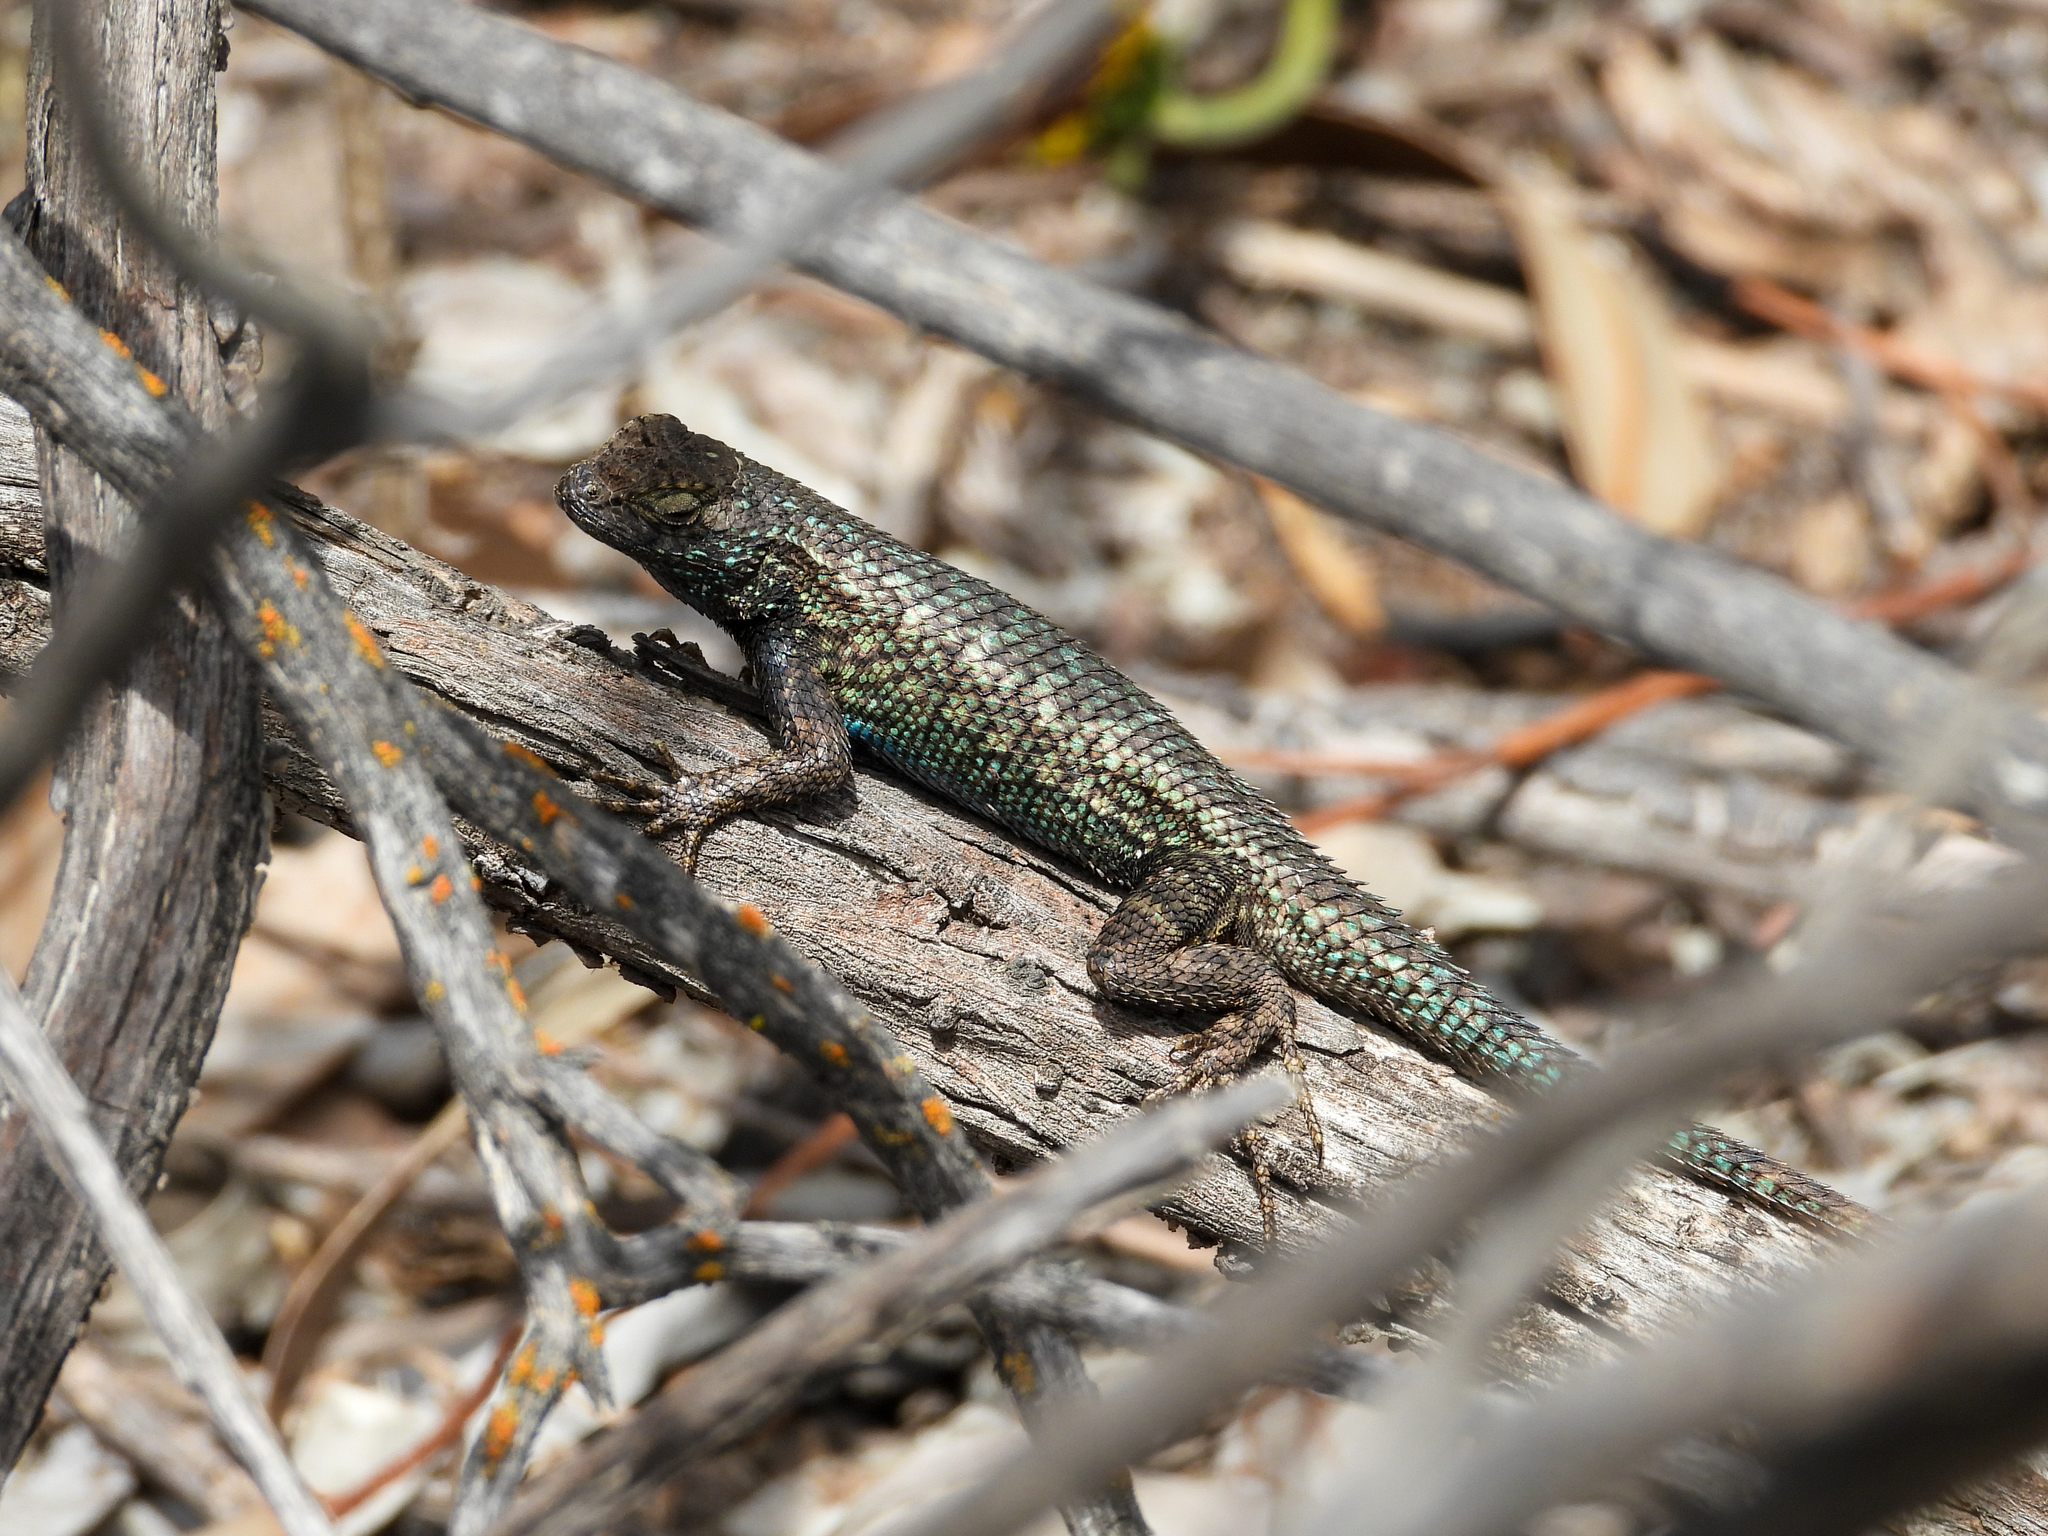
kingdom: Animalia
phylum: Chordata
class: Squamata
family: Phrynosomatidae
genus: Sceloporus
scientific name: Sceloporus occidentalis
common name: Western fence lizard
